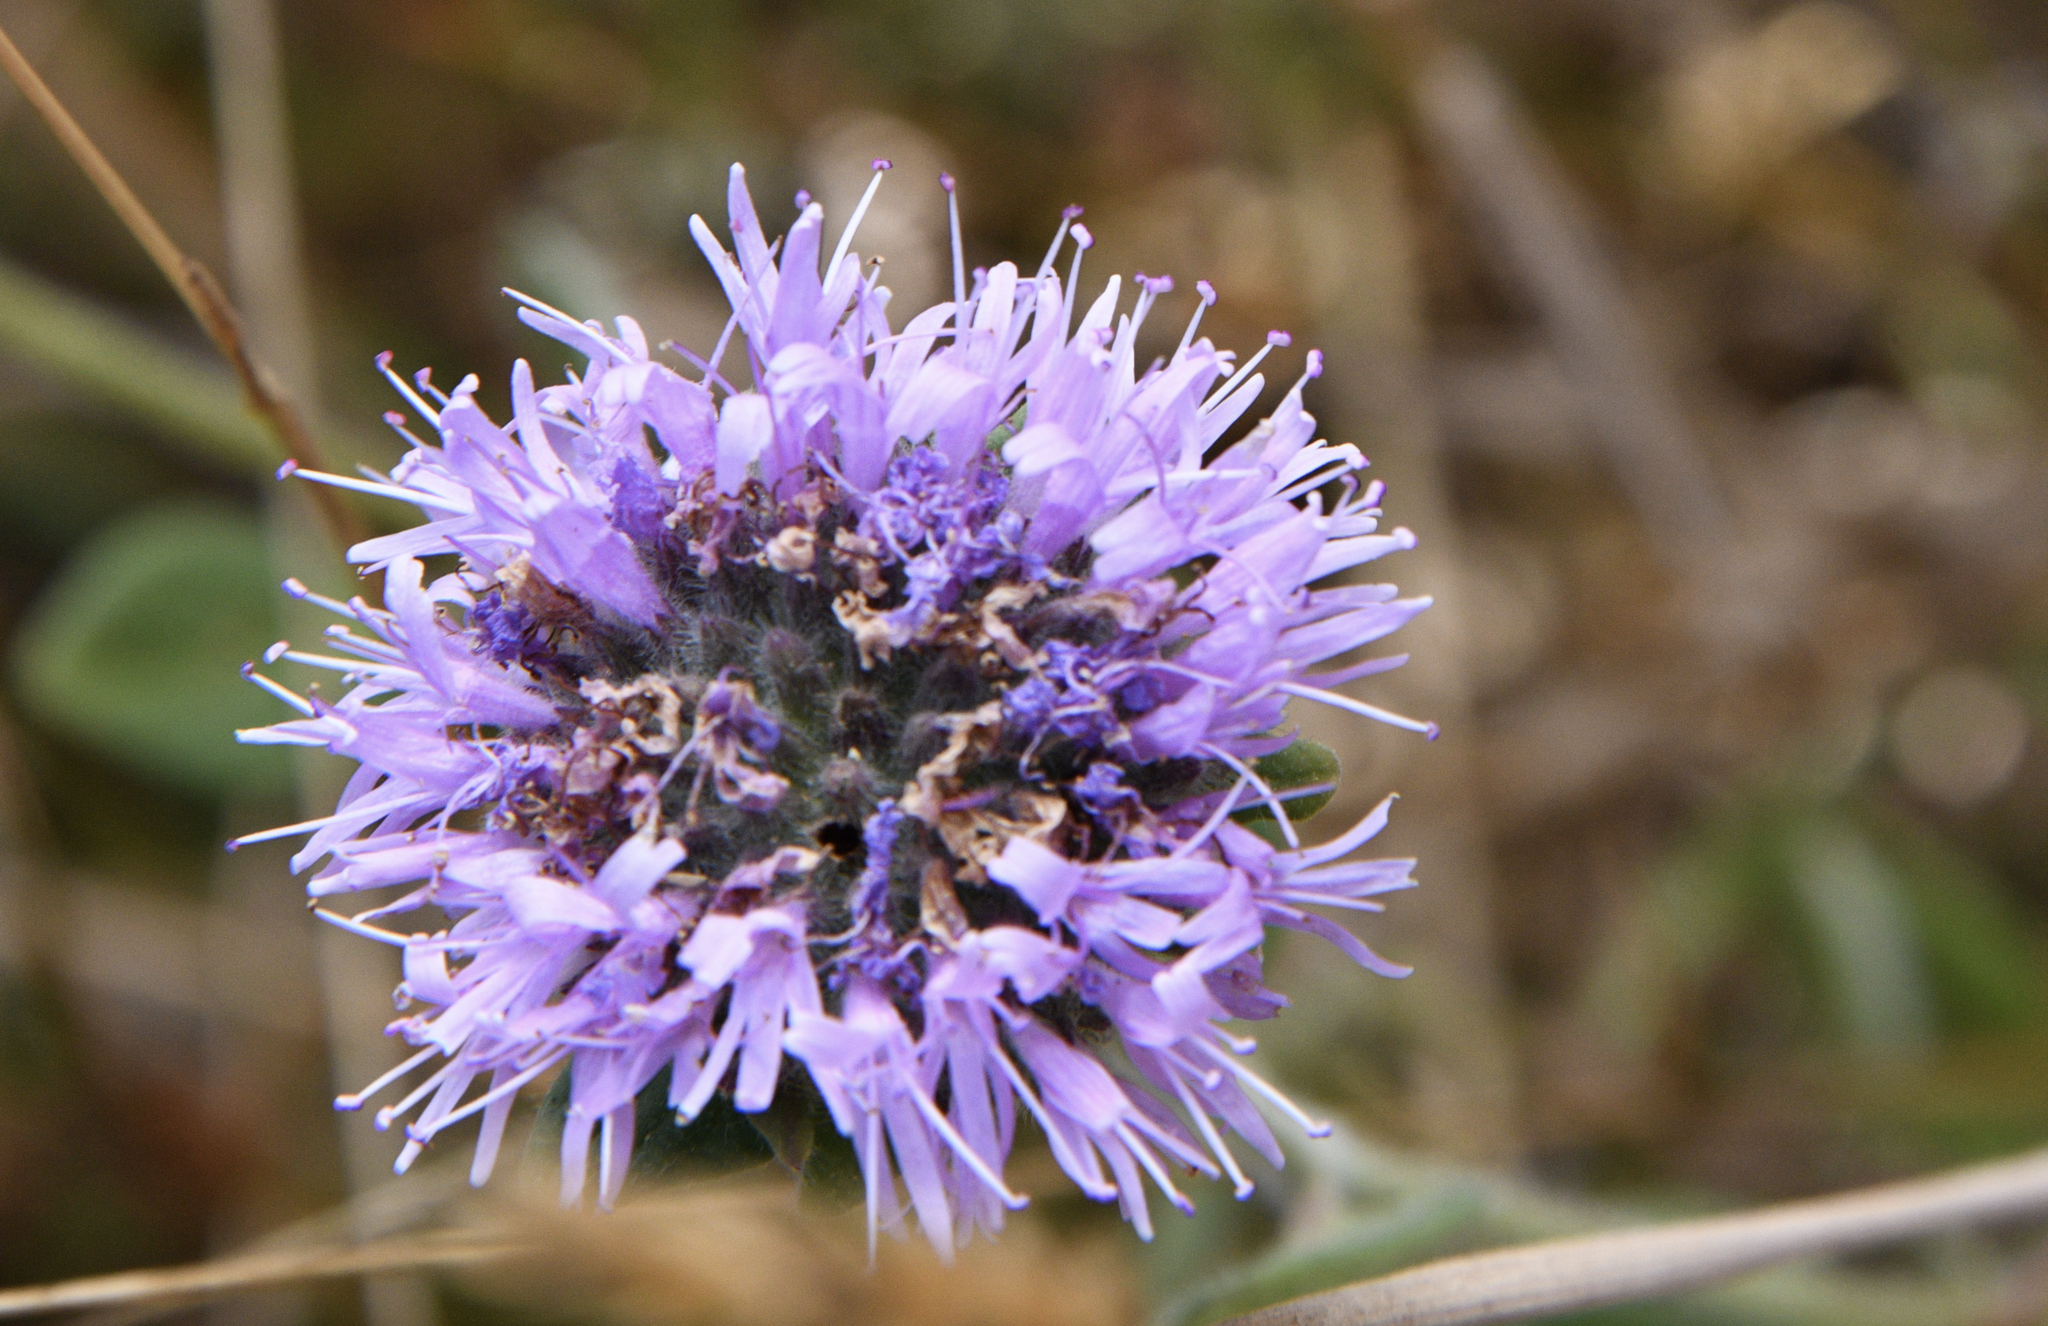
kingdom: Plantae
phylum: Tracheophyta
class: Magnoliopsida
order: Lamiales
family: Lamiaceae
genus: Monardella
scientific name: Monardella odoratissima
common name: Pacific monardella
